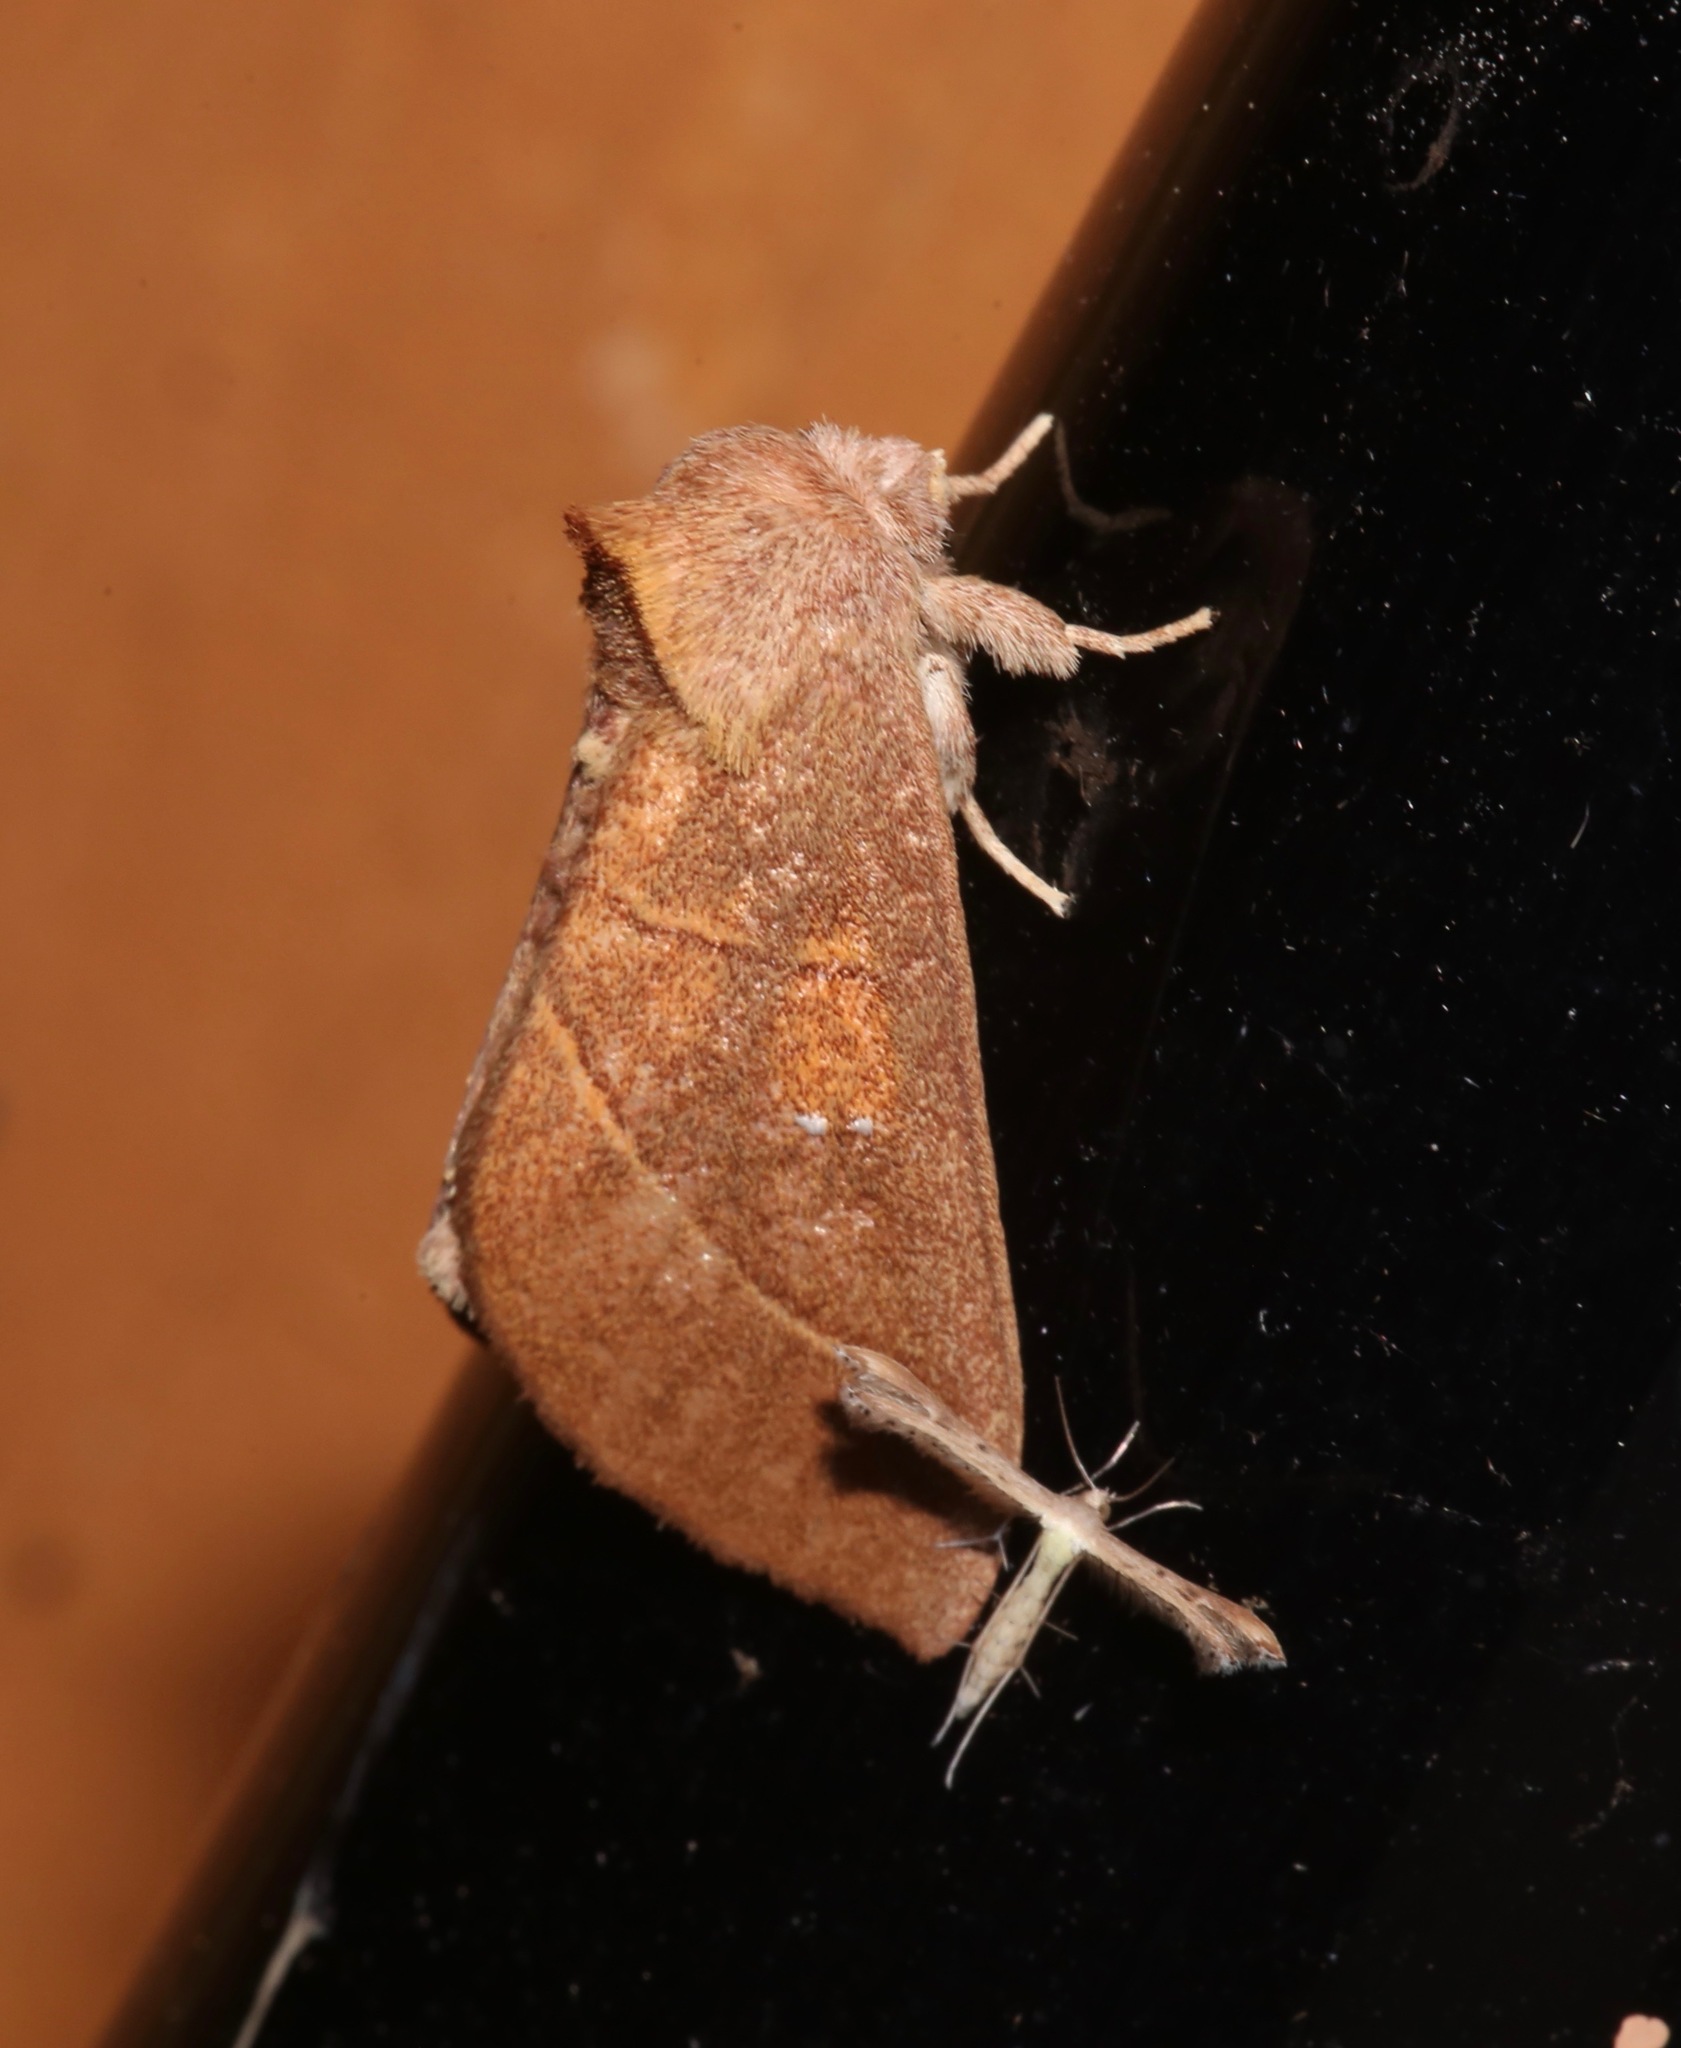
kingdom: Animalia
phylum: Arthropoda
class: Insecta
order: Lepidoptera
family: Notodontidae
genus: Nadata
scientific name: Nadata gibbosa
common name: White-dotted prominent
